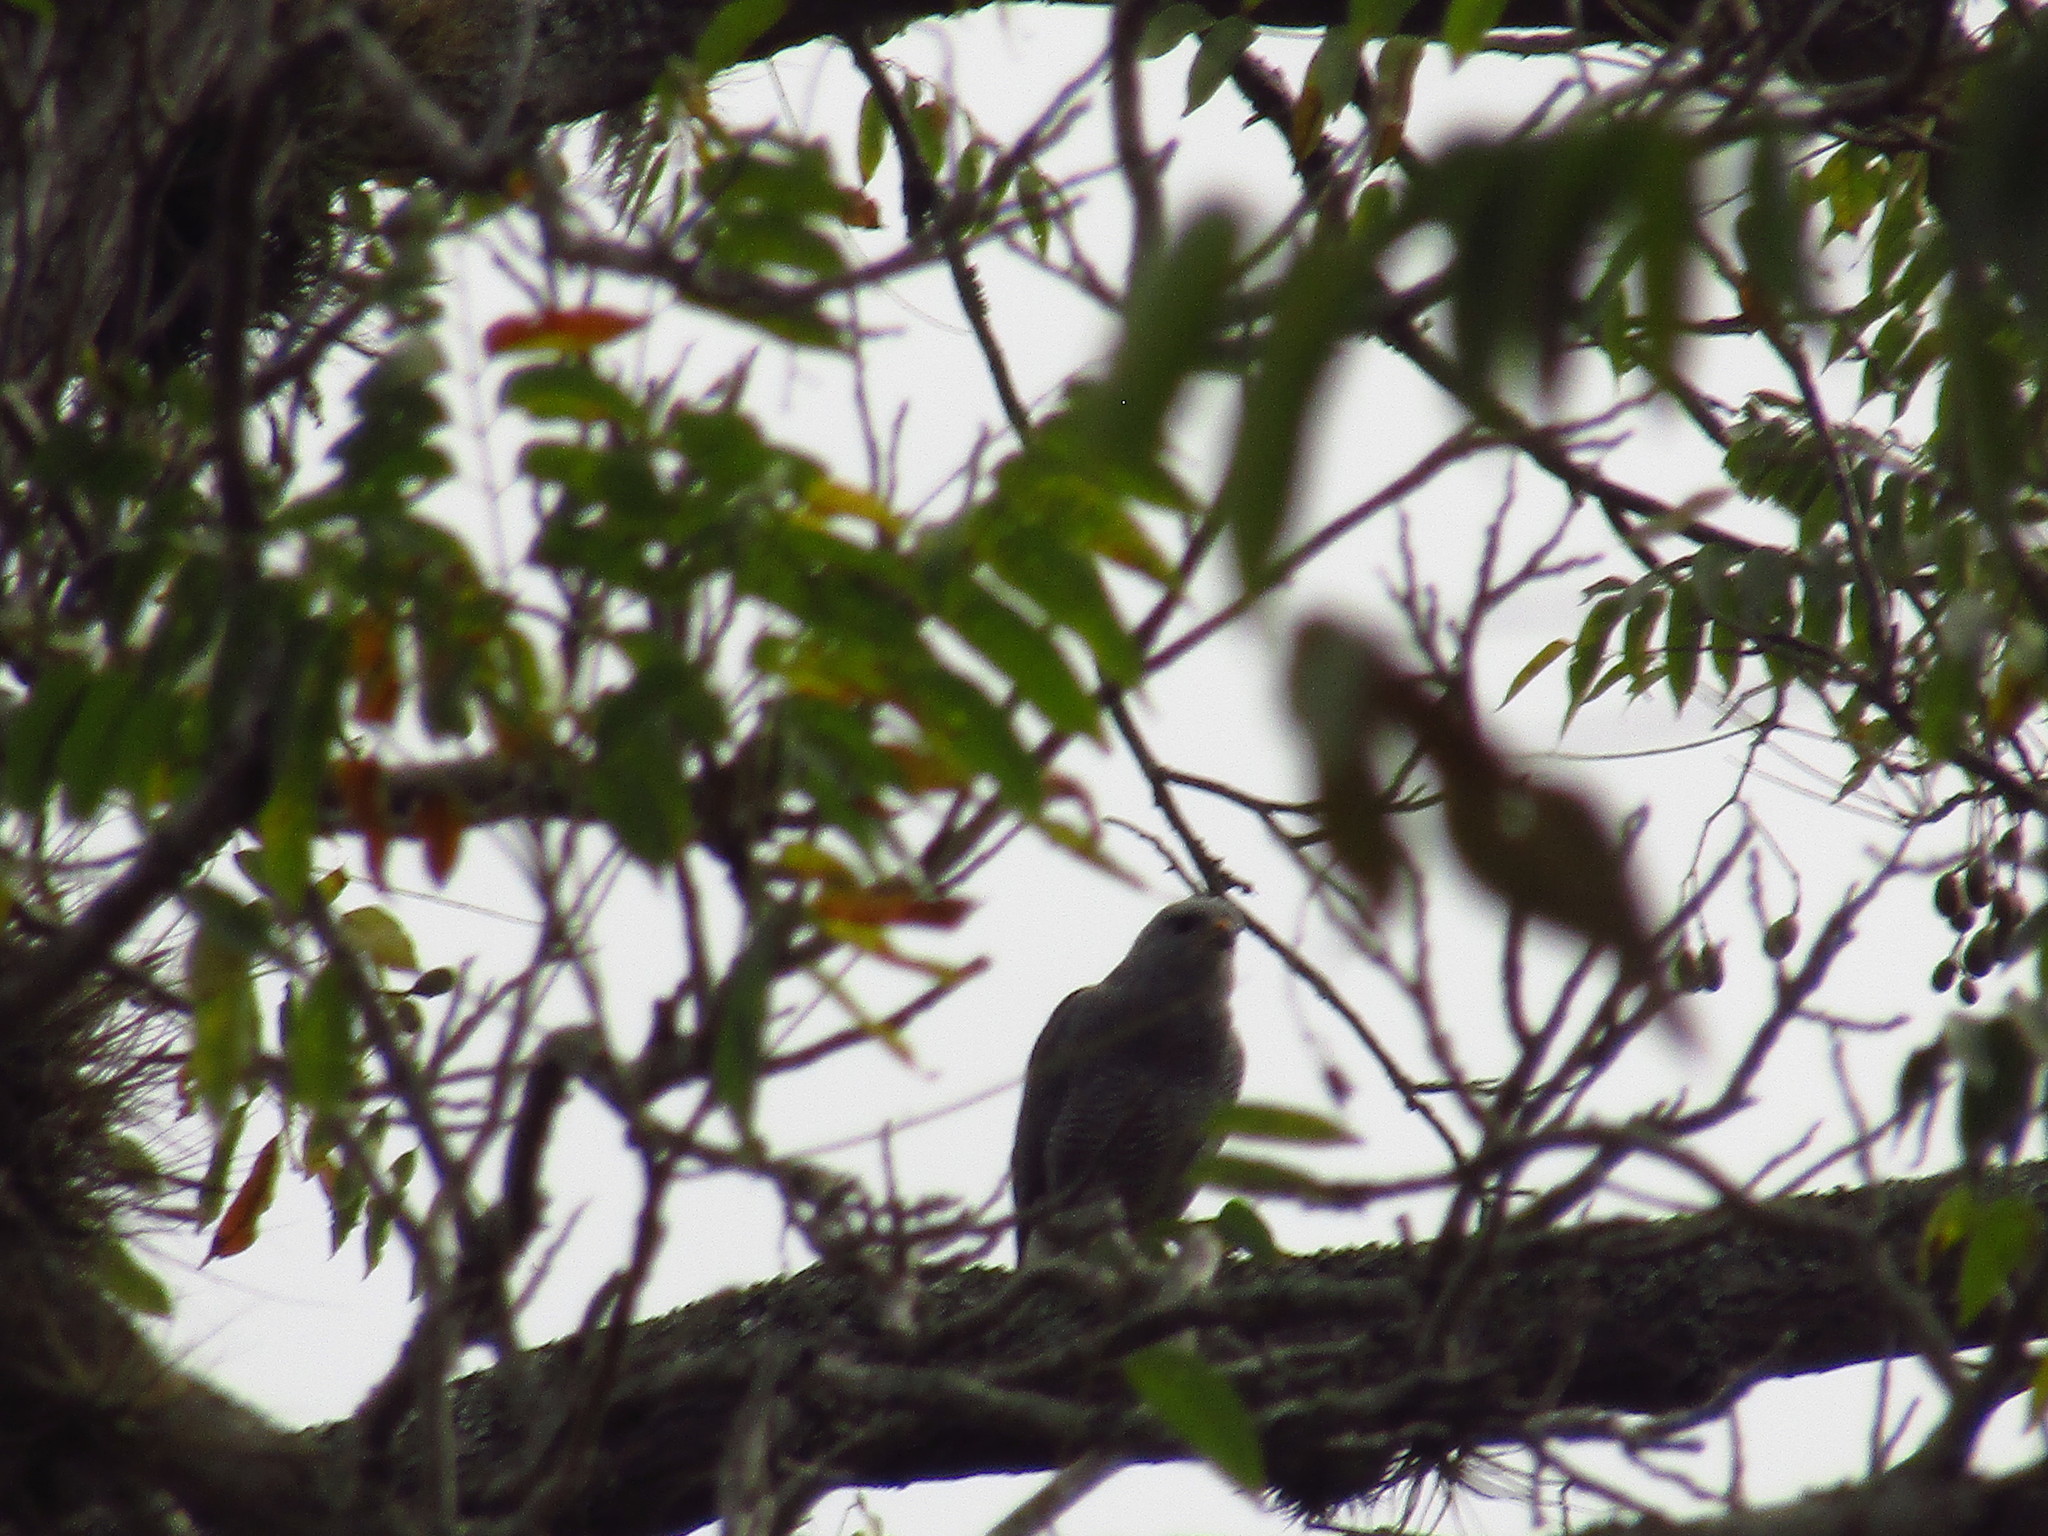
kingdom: Animalia
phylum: Chordata
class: Aves
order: Accipitriformes
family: Accipitridae
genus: Buteo
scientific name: Buteo nitidus
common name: Grey-lined hawk
